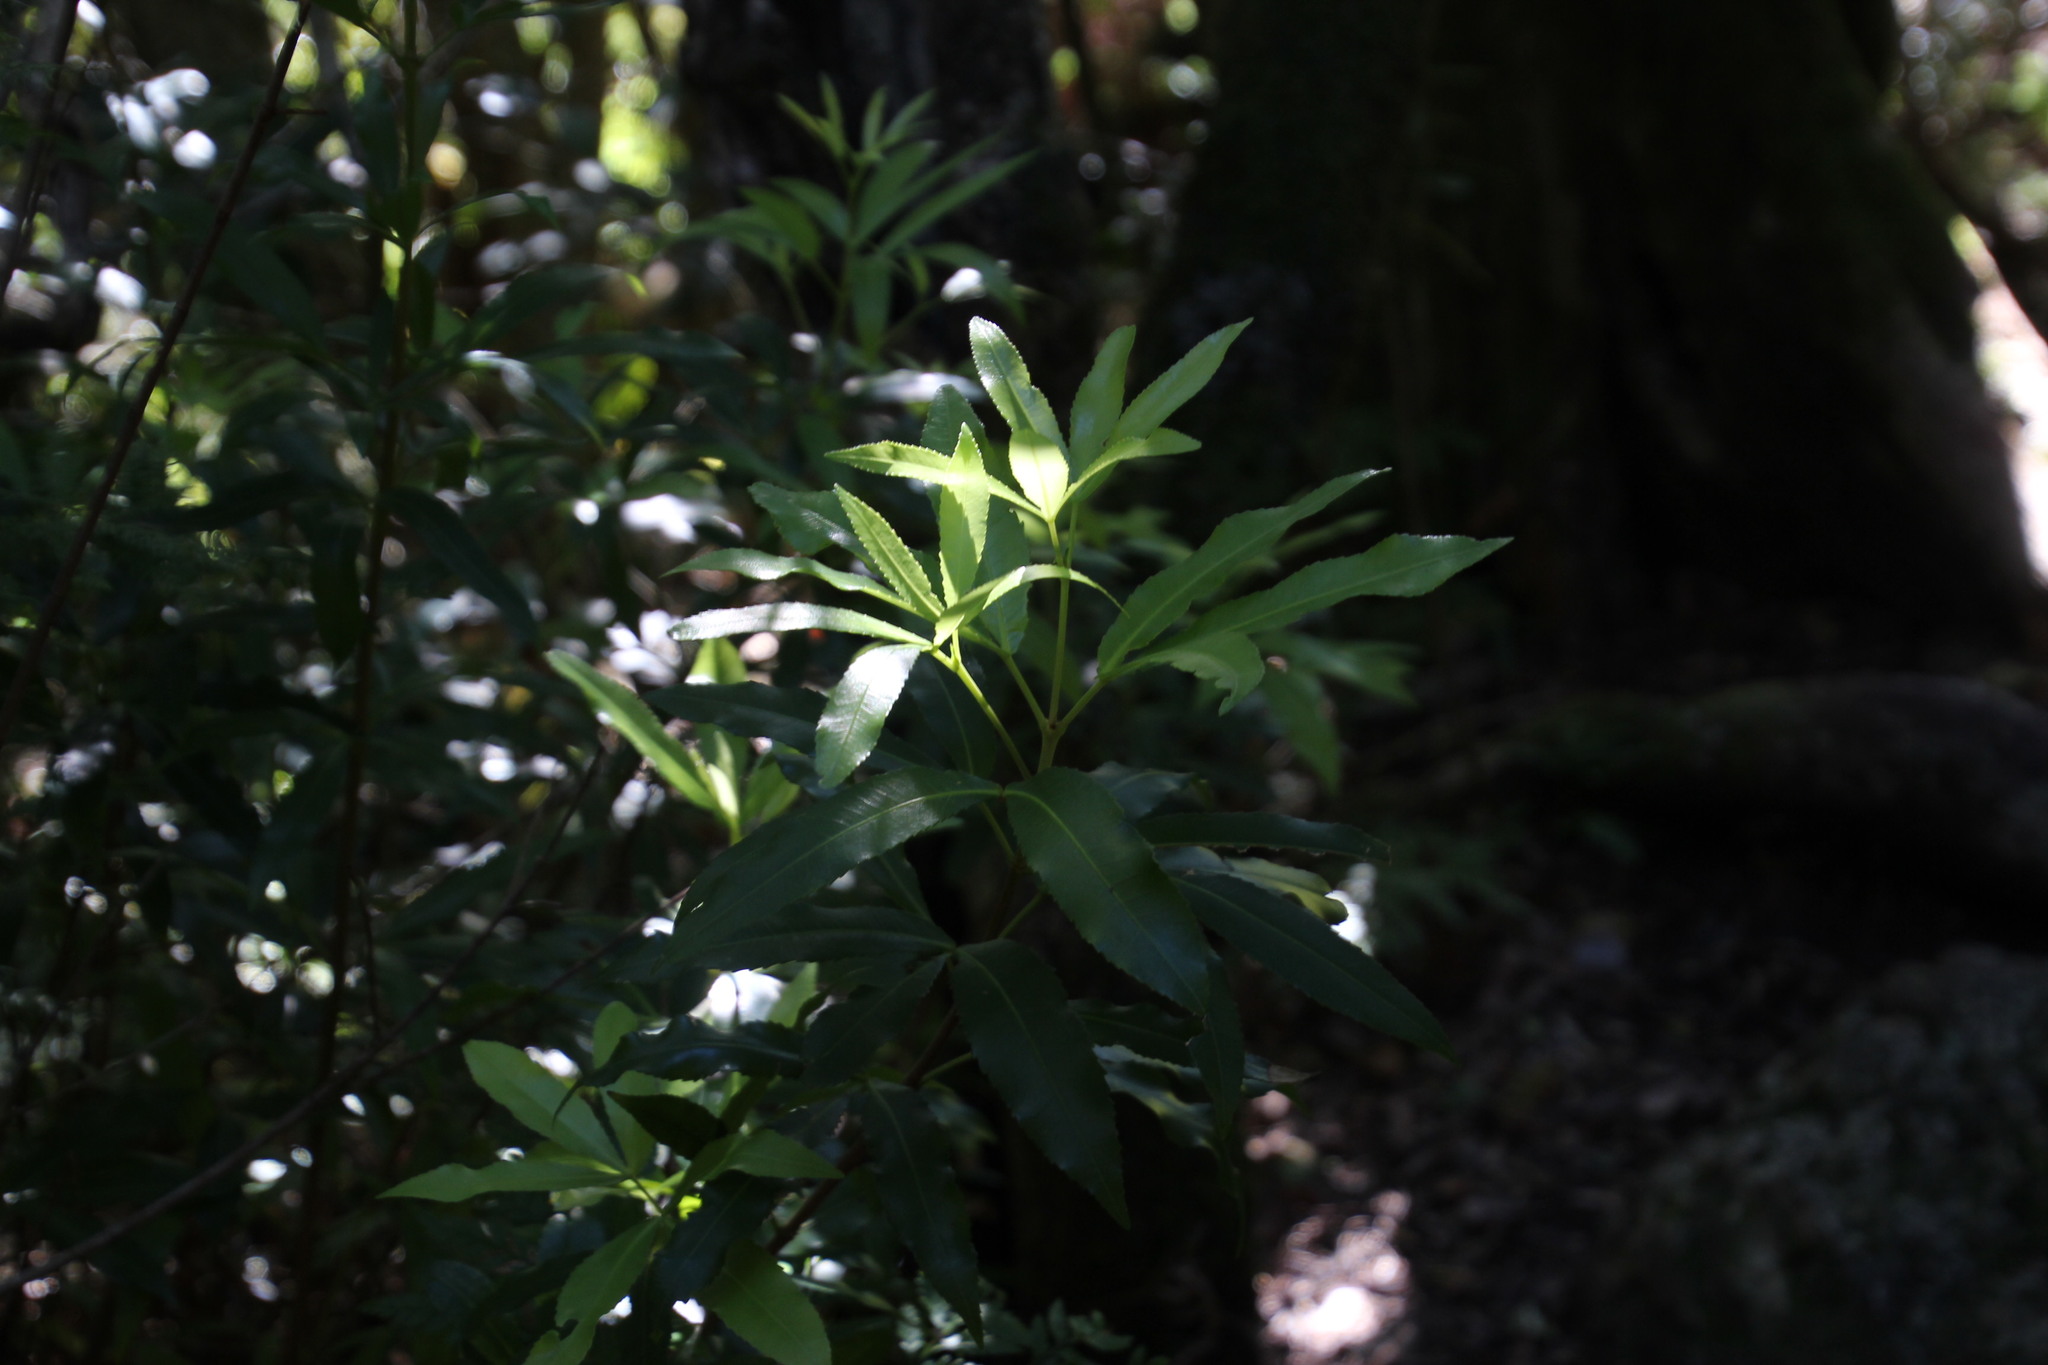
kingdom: Plantae
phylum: Tracheophyta
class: Magnoliopsida
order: Oxalidales
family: Cunoniaceae
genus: Platylophus
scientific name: Platylophus trifoliatus
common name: White alder
